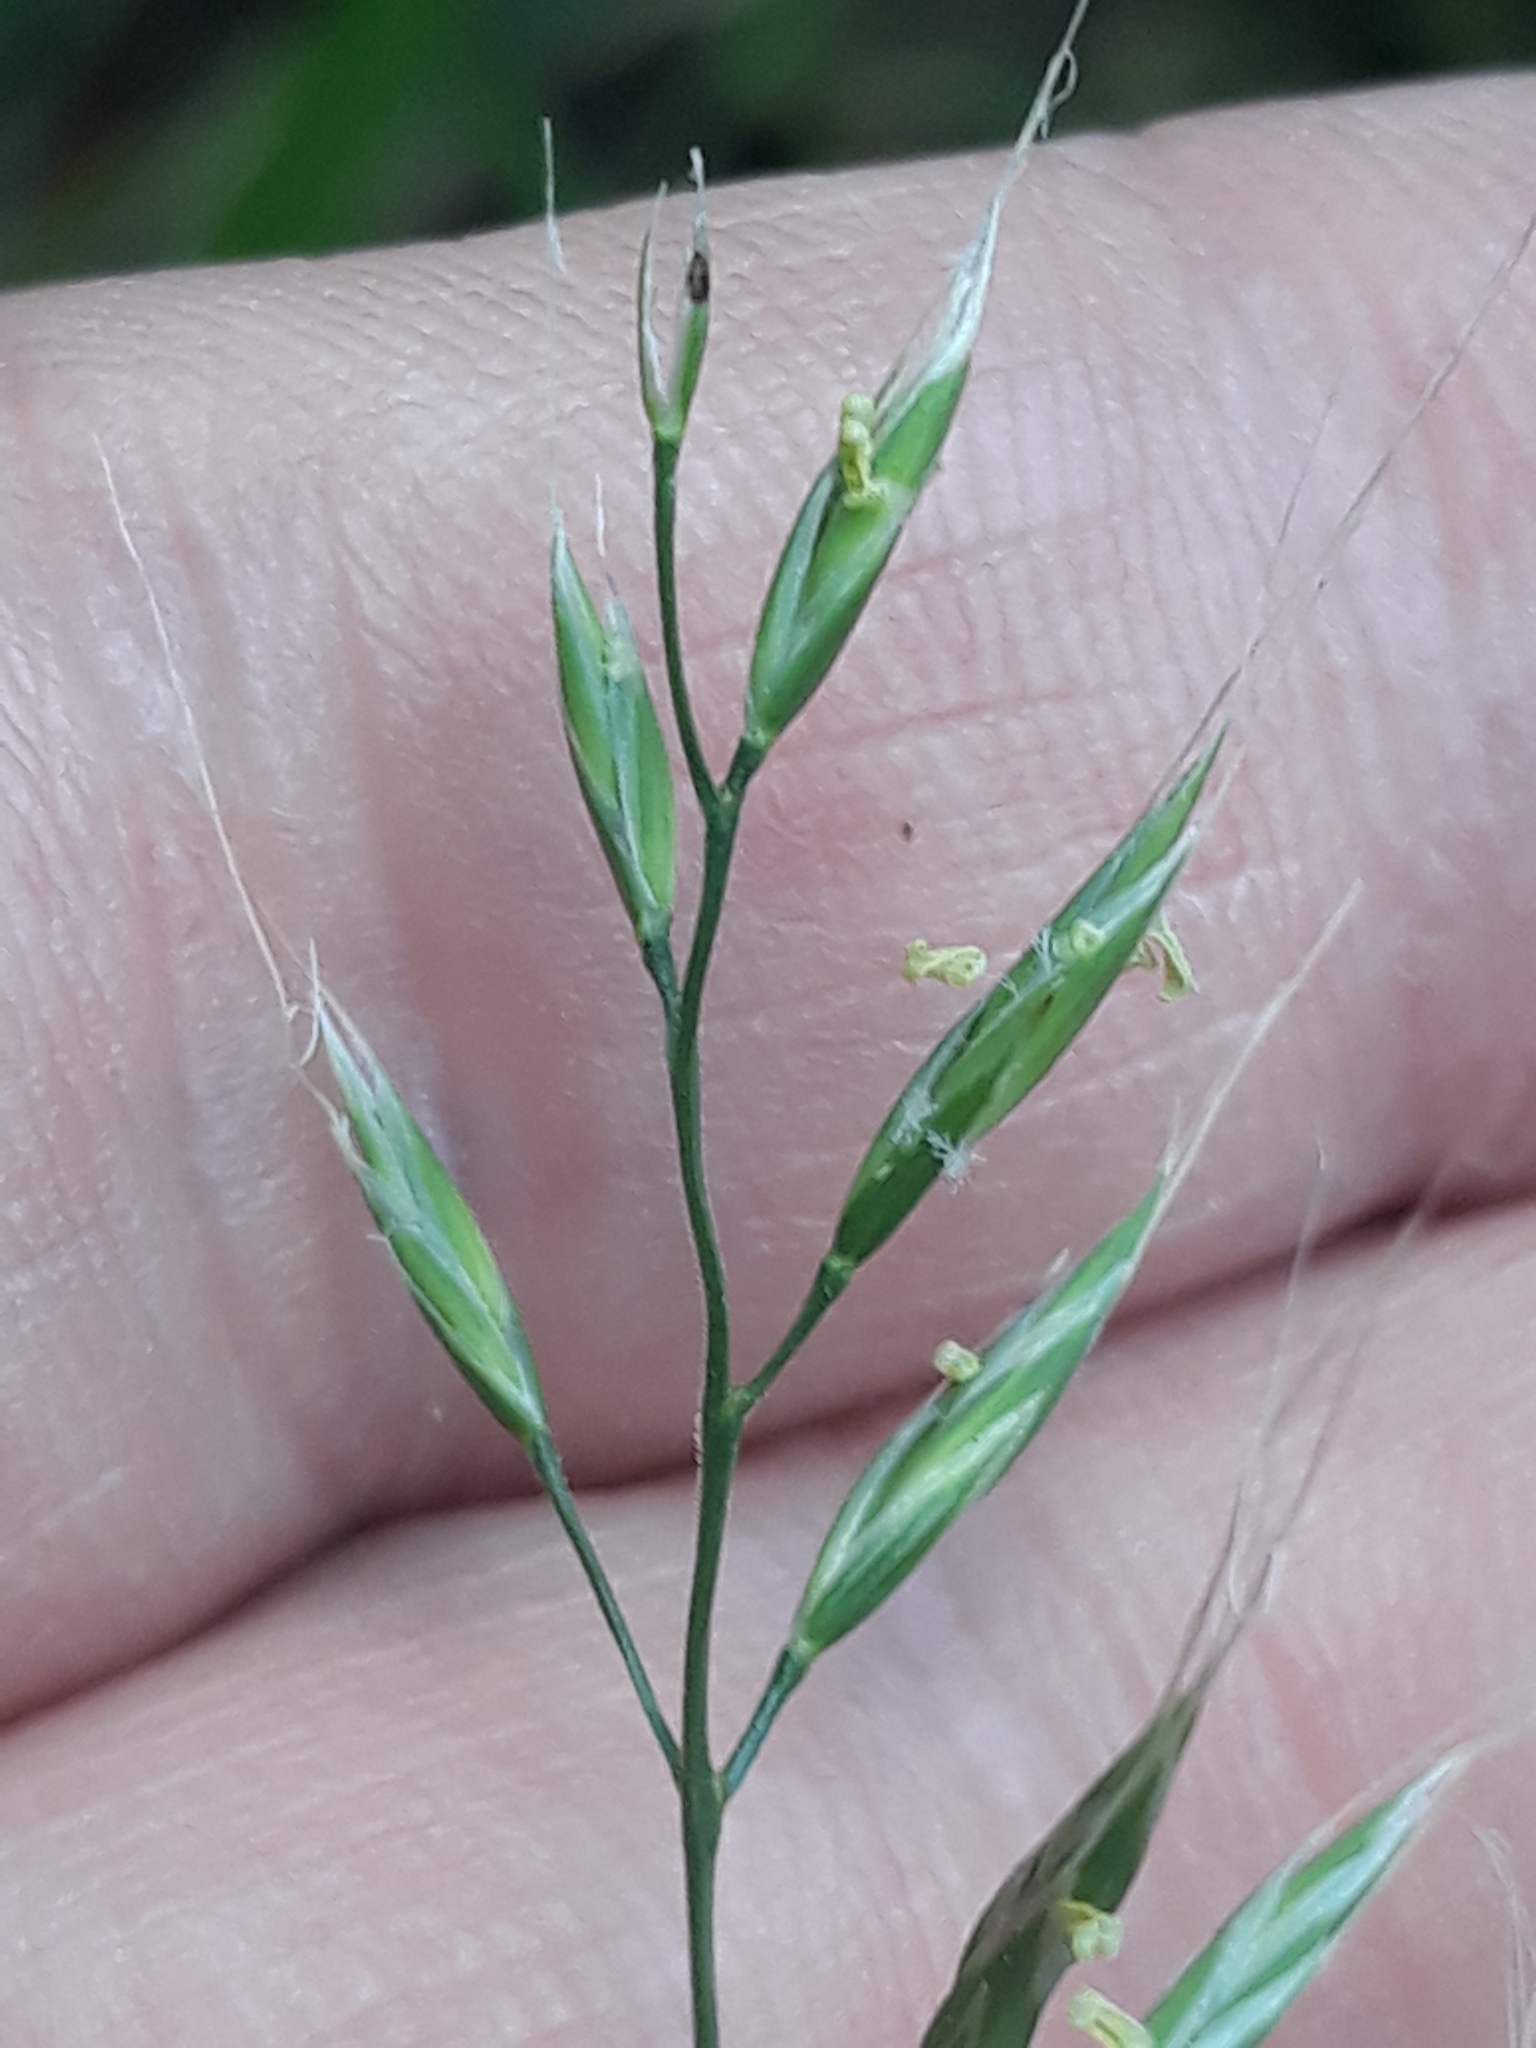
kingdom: Plantae
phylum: Tracheophyta
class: Liliopsida
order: Poales
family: Poaceae
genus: Lolium
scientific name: Lolium giganteum
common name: Giant fescue
